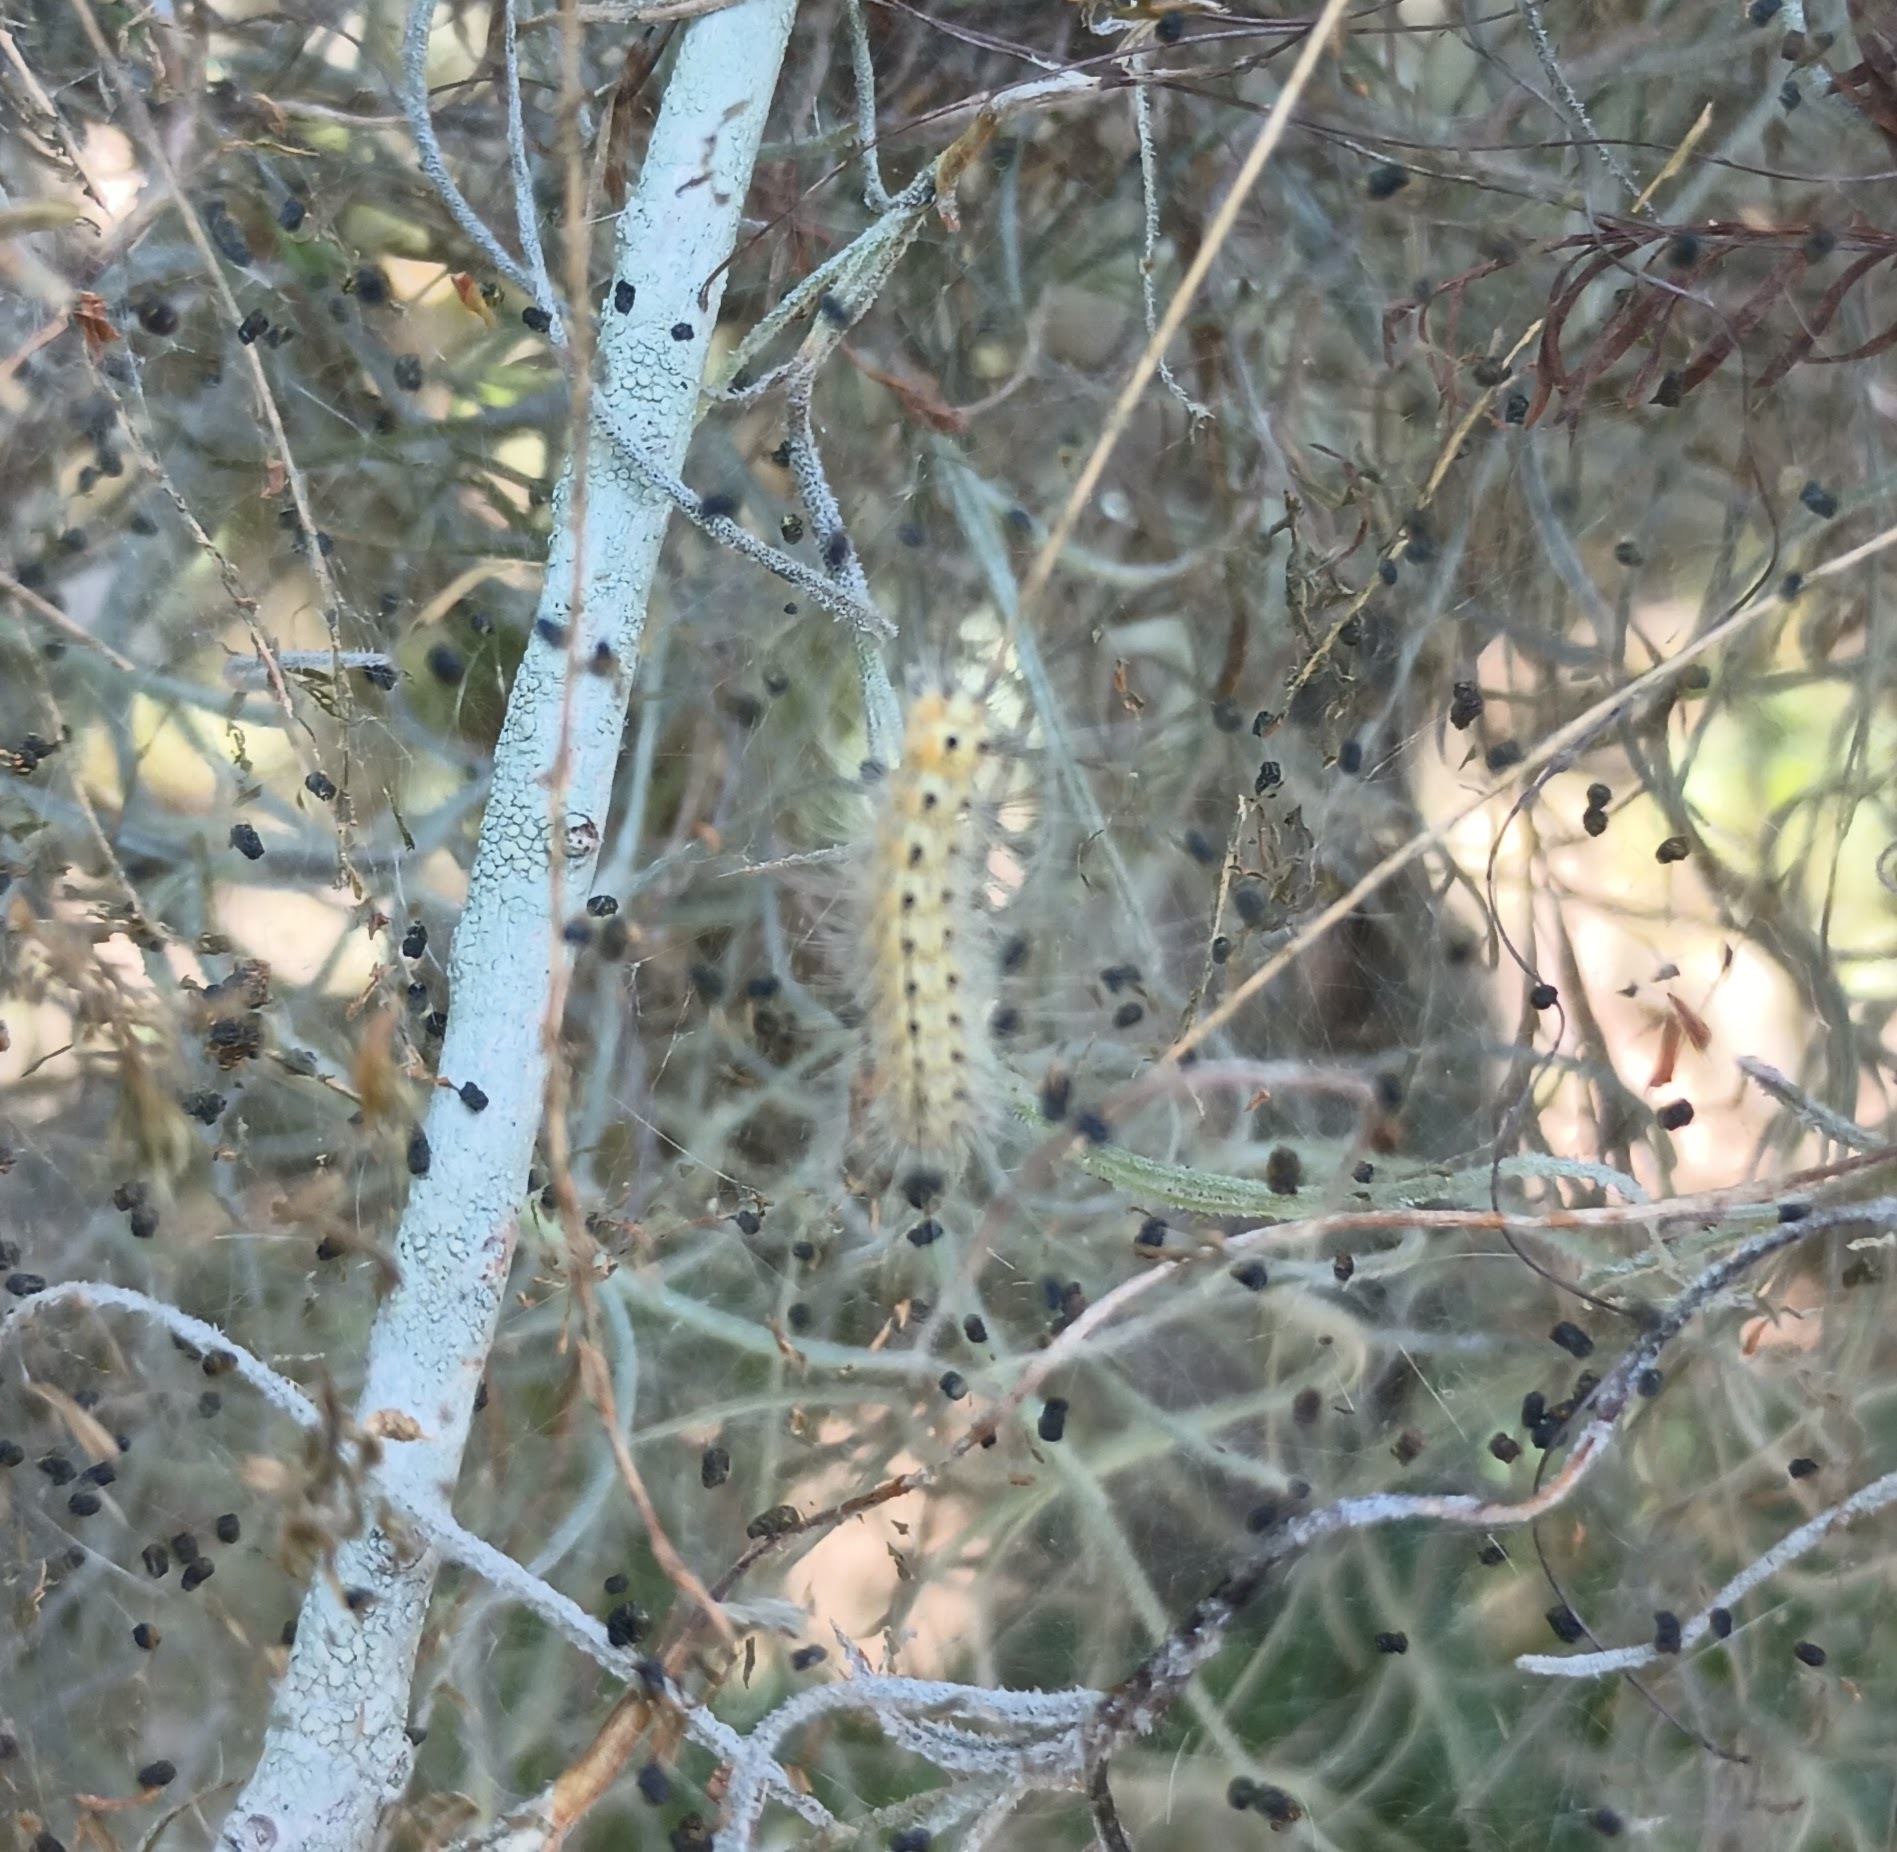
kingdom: Animalia
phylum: Arthropoda
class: Insecta
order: Lepidoptera
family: Erebidae
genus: Hyphantria
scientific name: Hyphantria cunea
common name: American white moth
